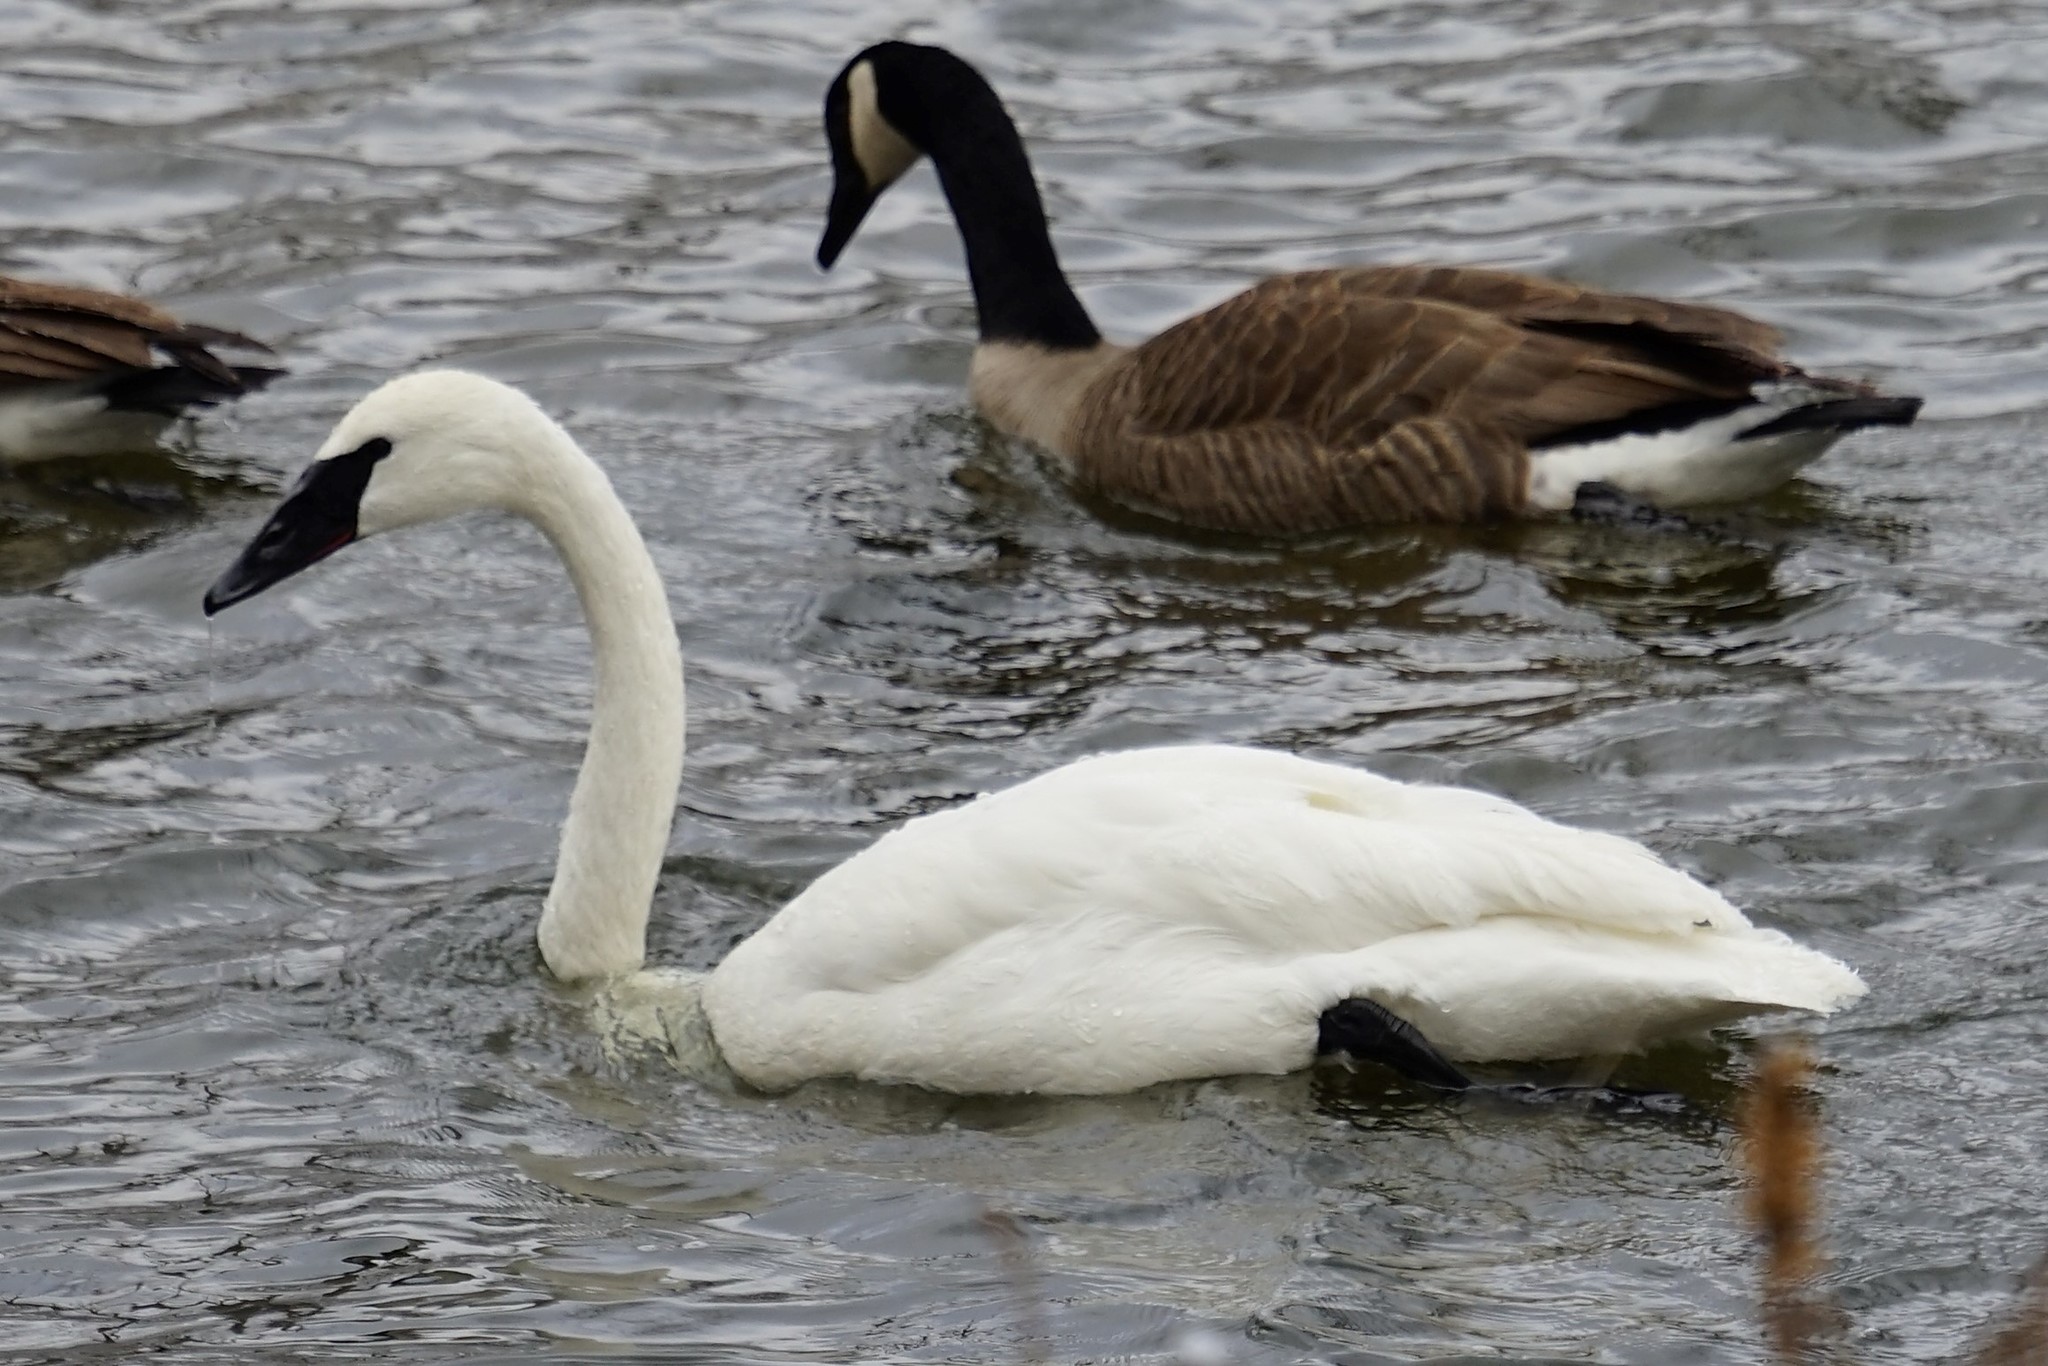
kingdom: Animalia
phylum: Chordata
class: Aves
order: Anseriformes
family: Anatidae
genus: Cygnus
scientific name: Cygnus buccinator
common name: Trumpeter swan
